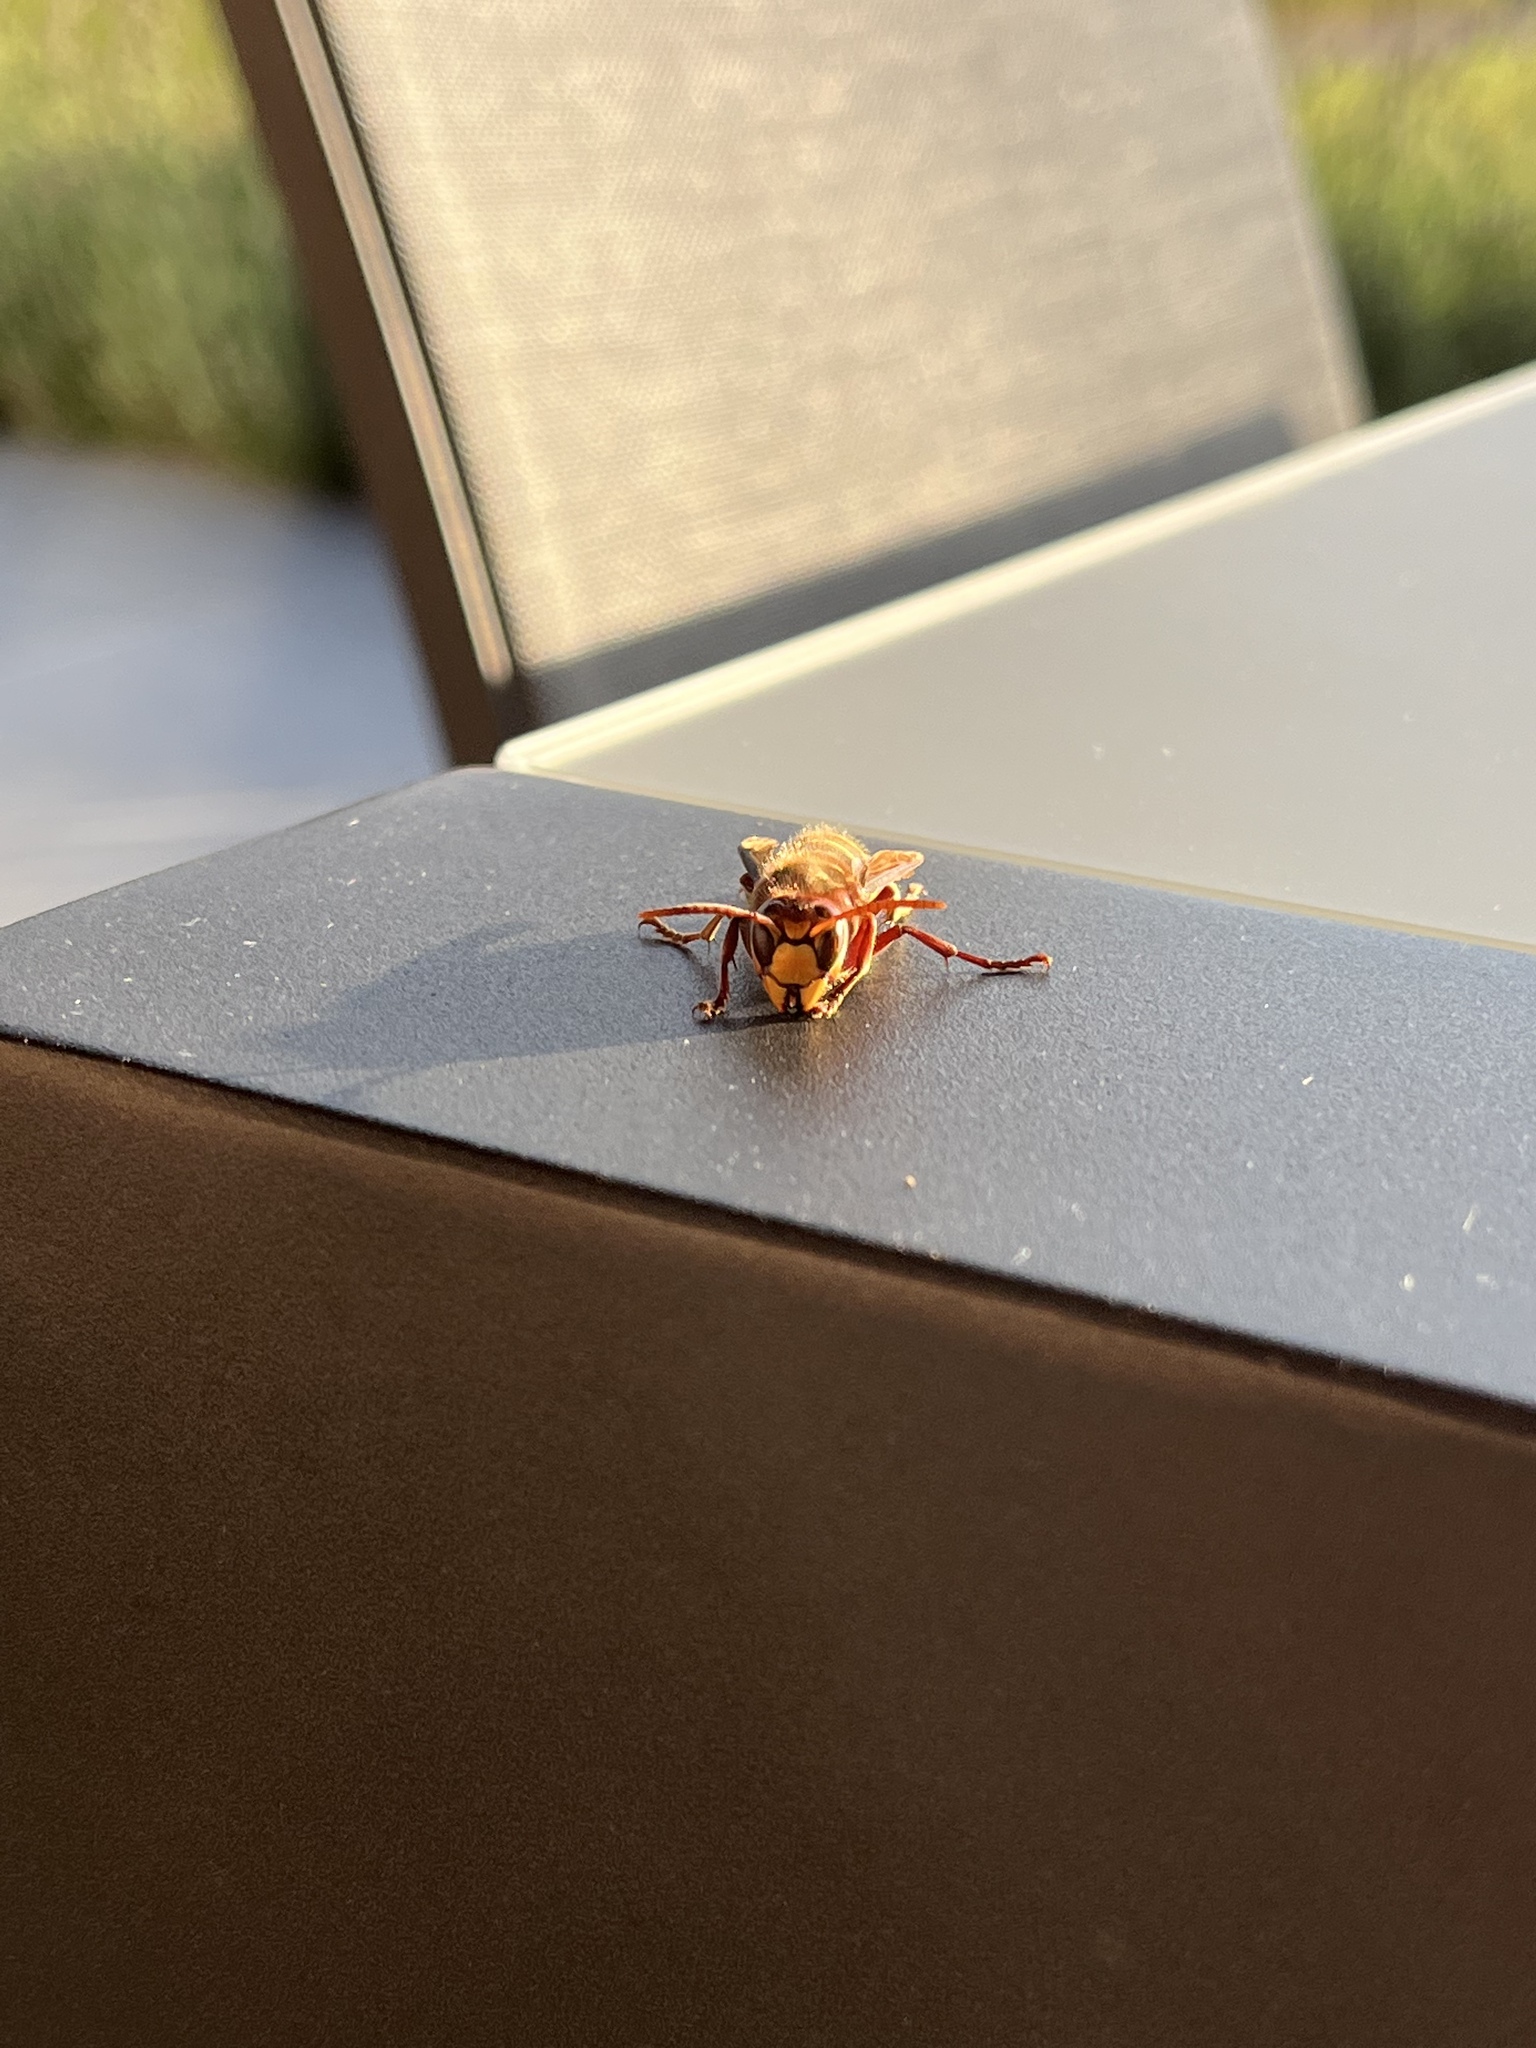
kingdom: Animalia
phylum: Arthropoda
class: Insecta
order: Hymenoptera
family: Vespidae
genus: Vespa
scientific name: Vespa crabro
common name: Hornet
